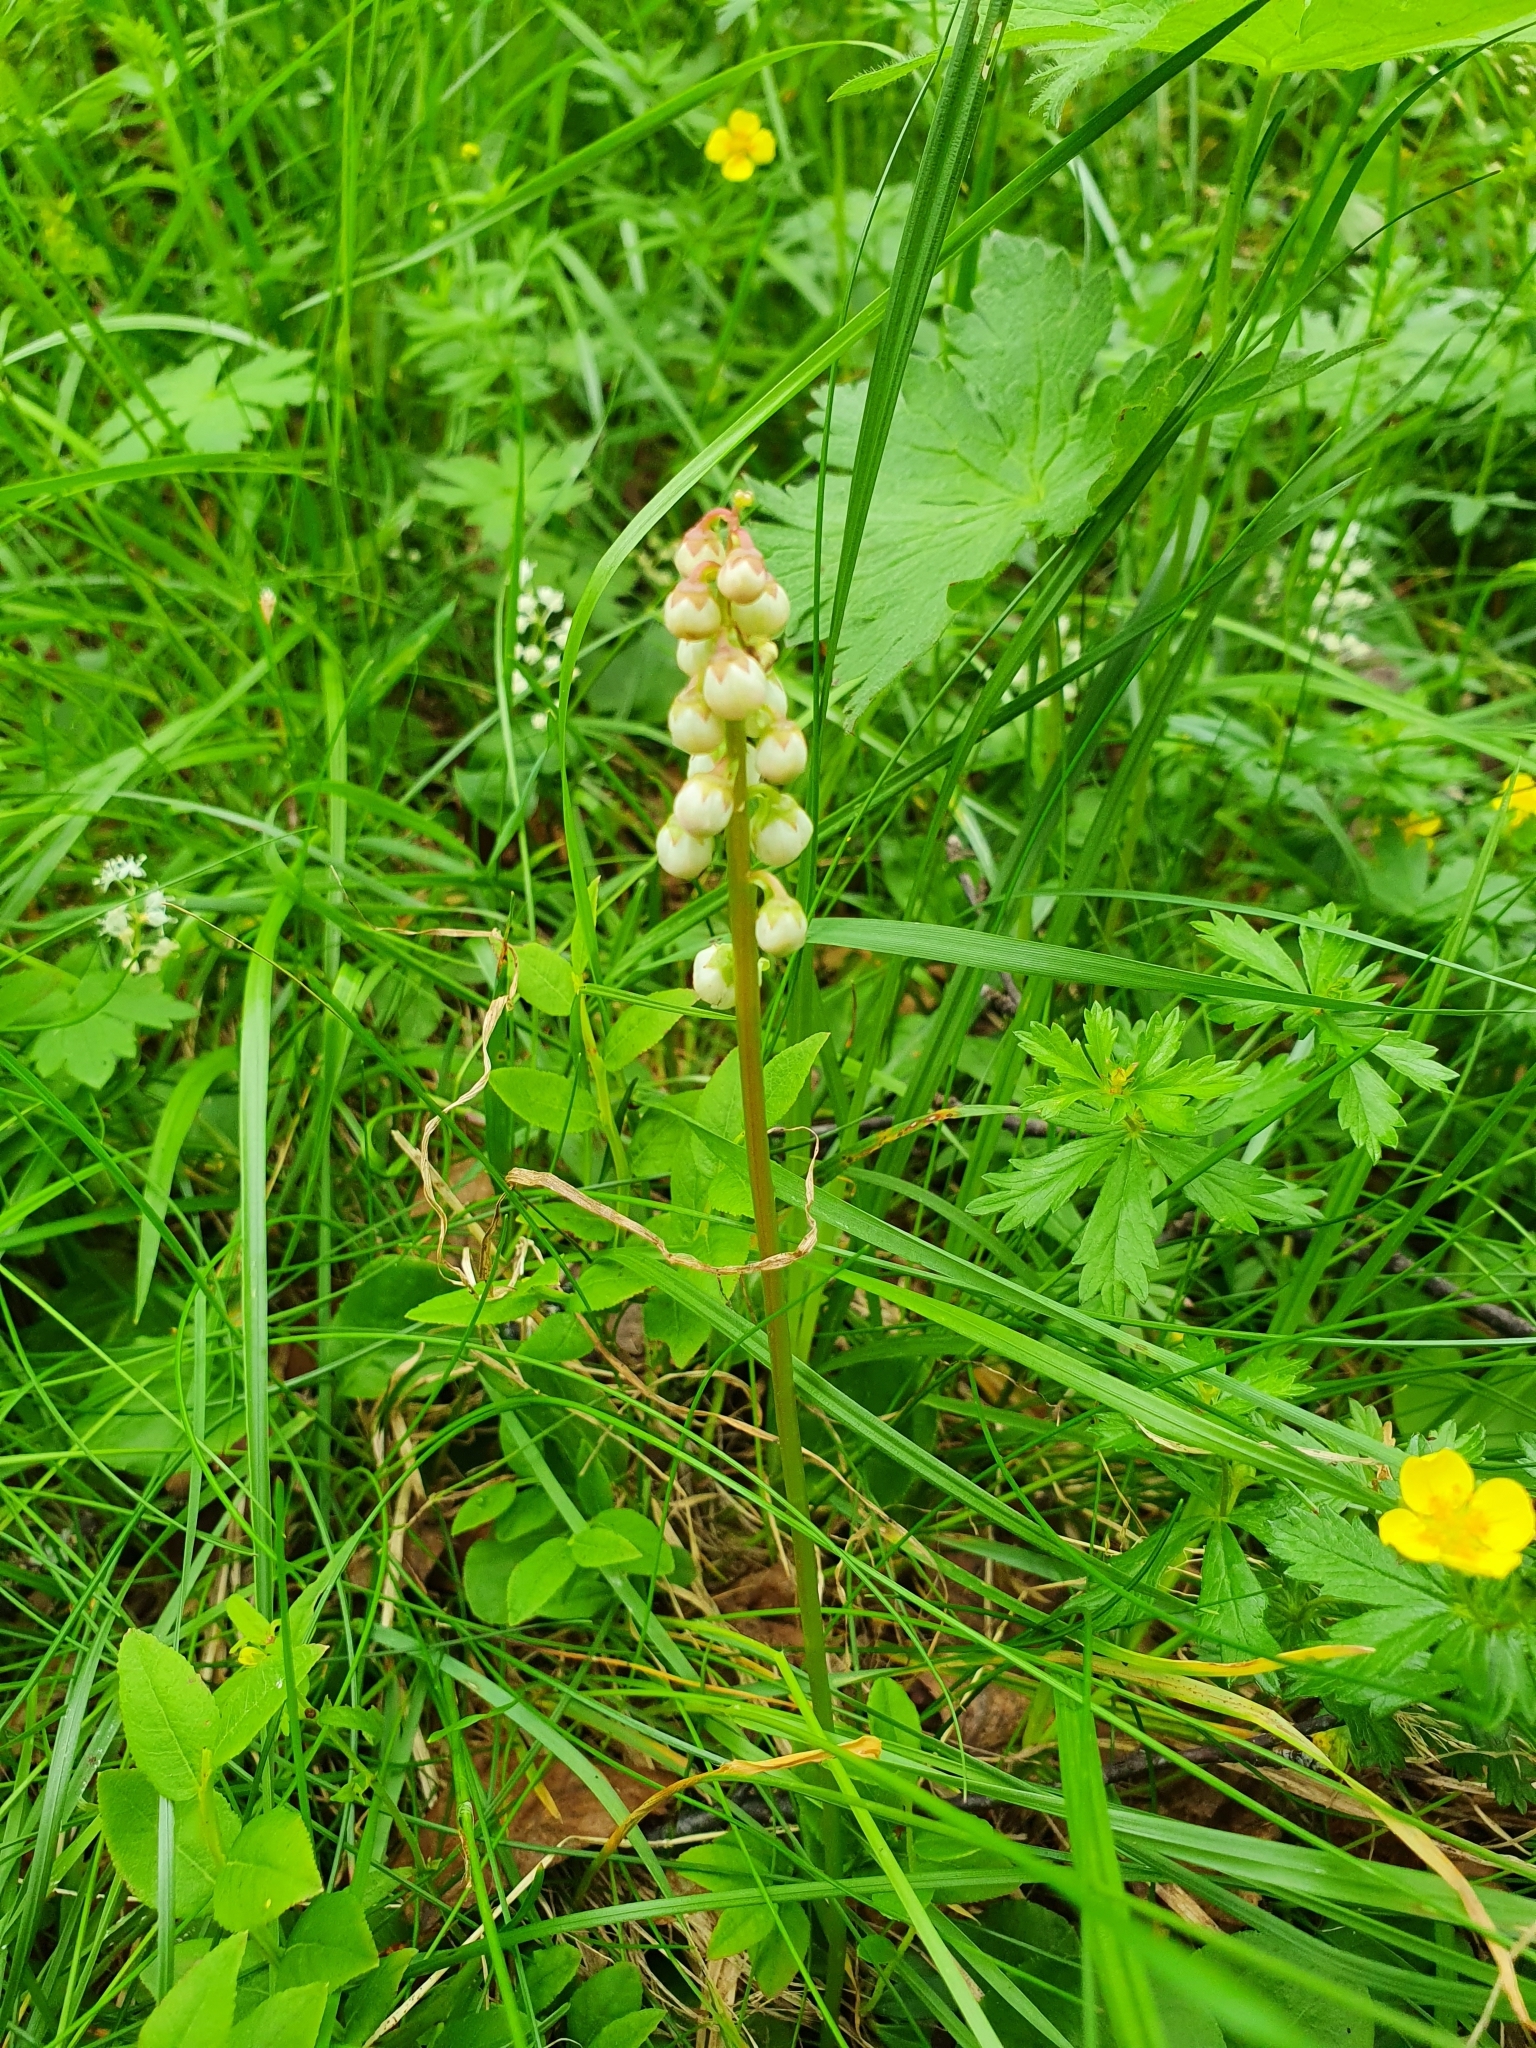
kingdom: Plantae
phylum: Tracheophyta
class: Magnoliopsida
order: Ericales
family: Ericaceae
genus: Pyrola
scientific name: Pyrola minor
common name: Common wintergreen
